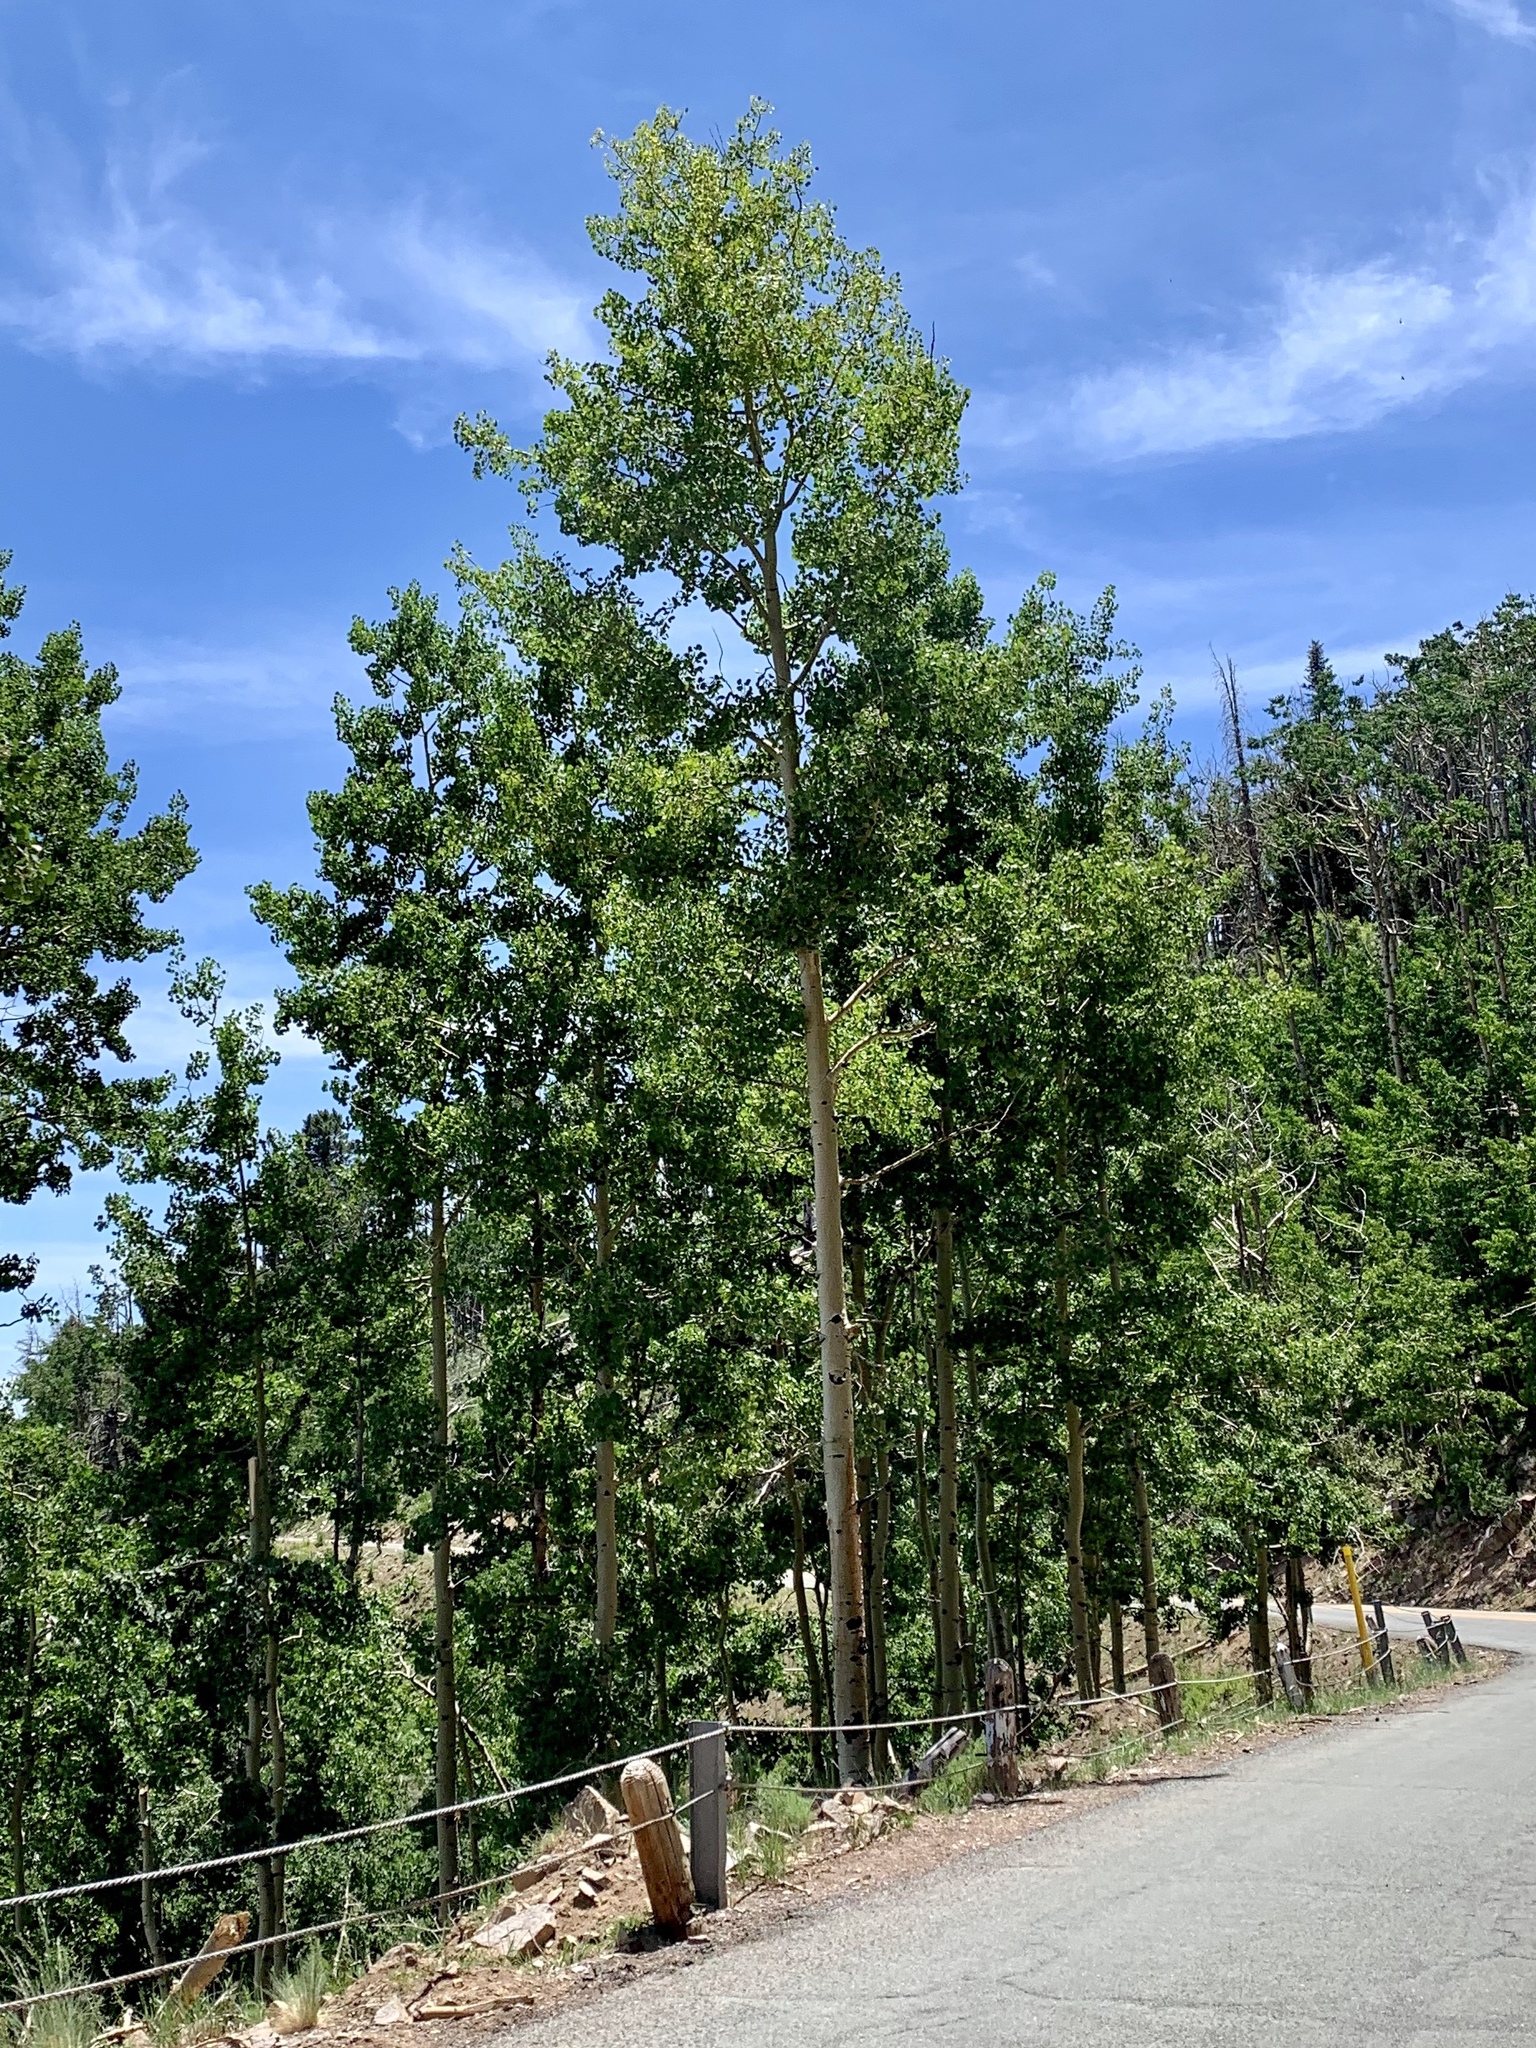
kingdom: Plantae
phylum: Tracheophyta
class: Magnoliopsida
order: Malpighiales
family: Salicaceae
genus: Populus
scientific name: Populus tremuloides
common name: Quaking aspen
